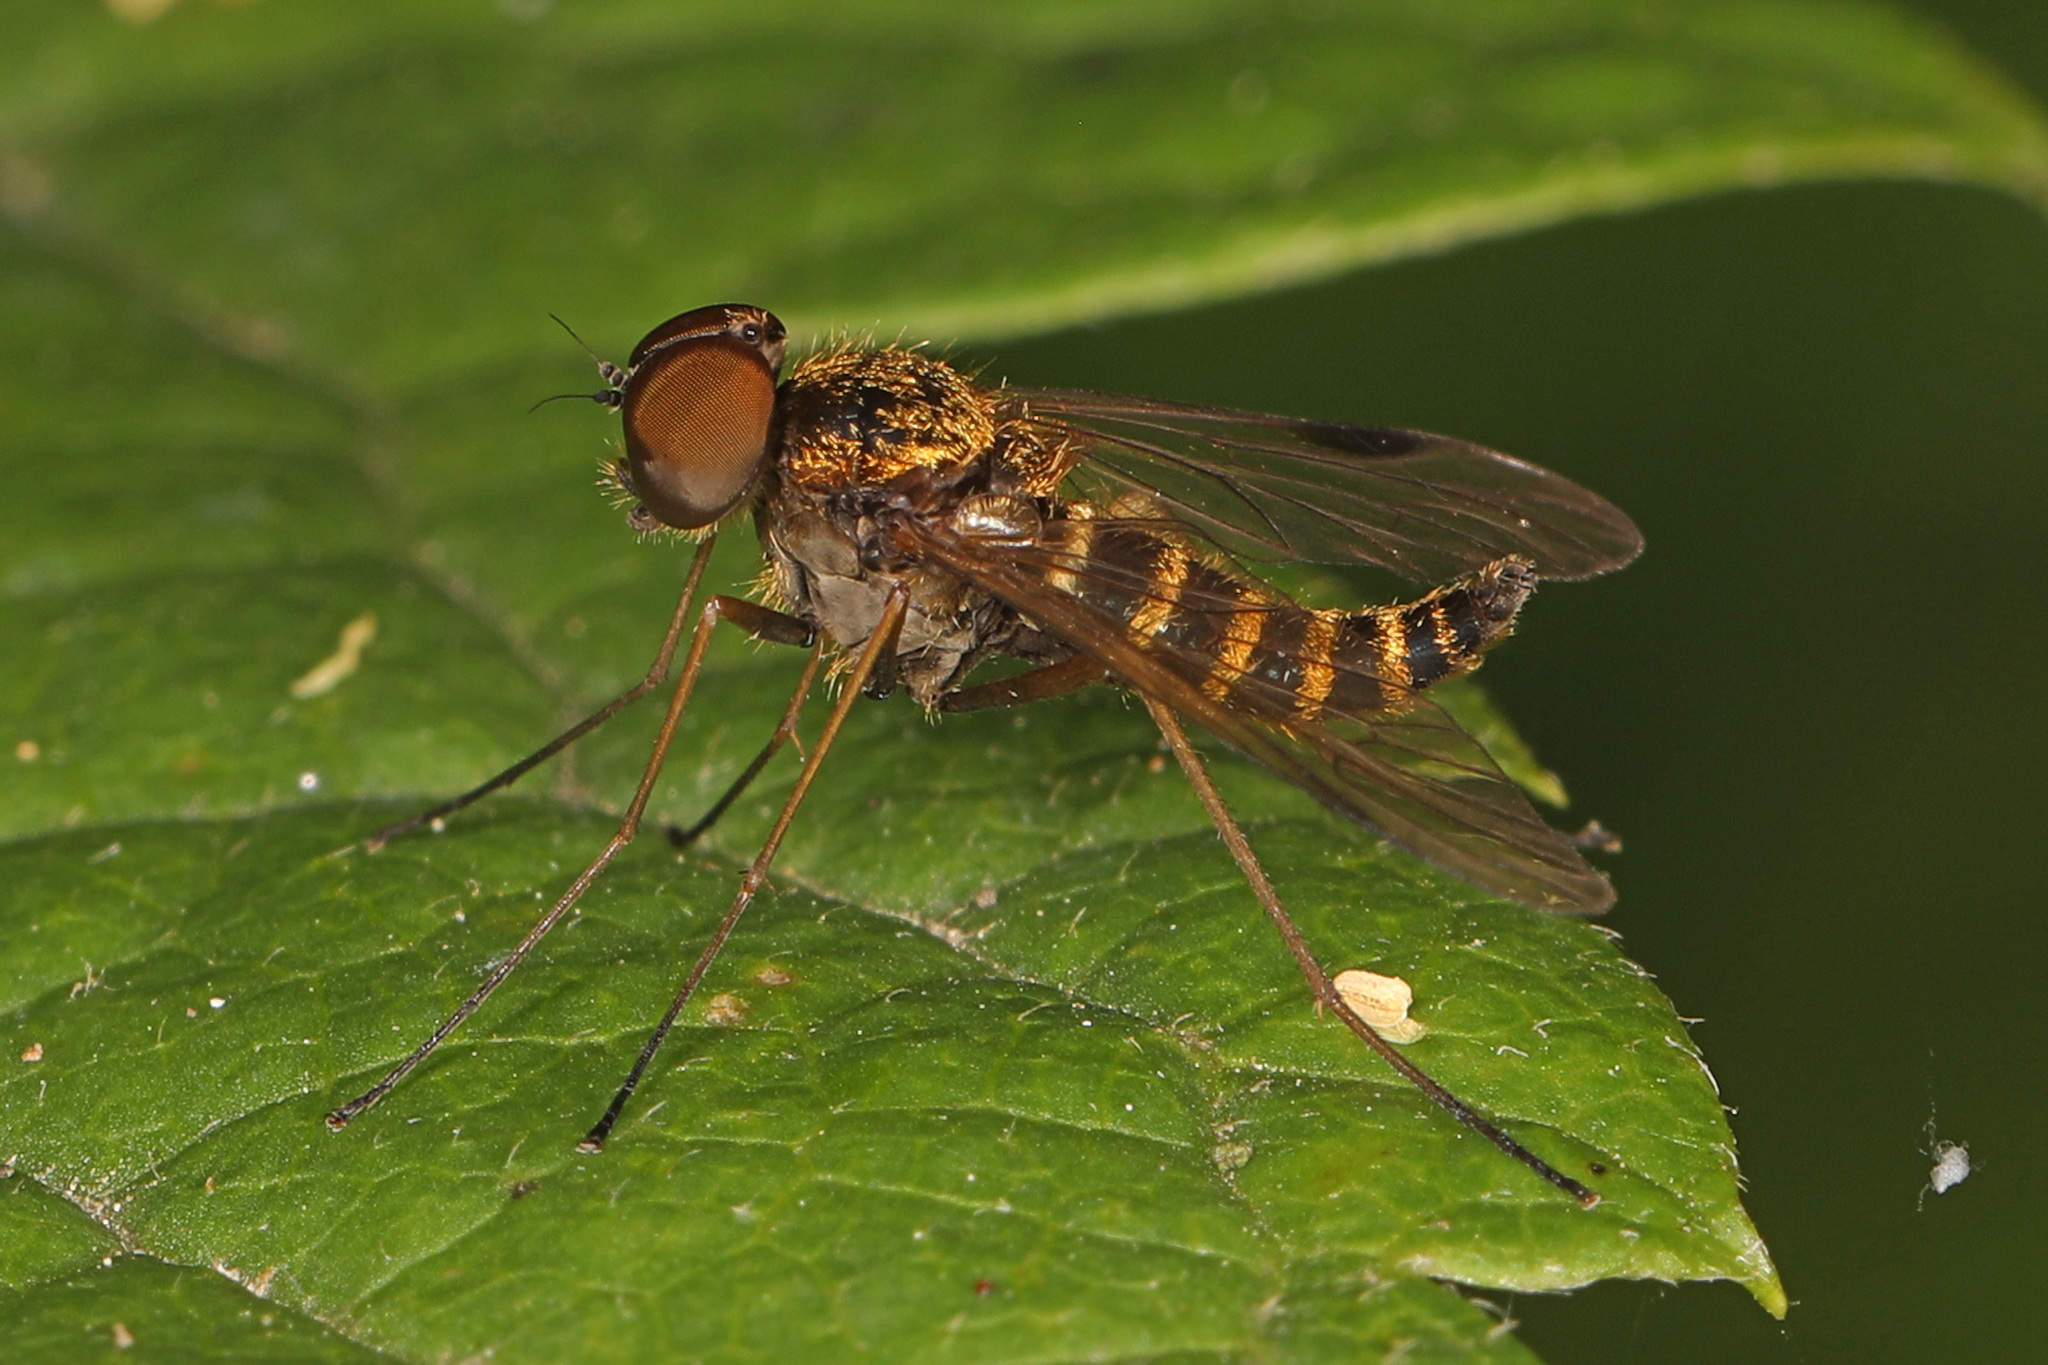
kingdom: Animalia
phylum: Arthropoda
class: Insecta
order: Diptera
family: Rhagionidae
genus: Chrysopilus
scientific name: Chrysopilus fasciatus
